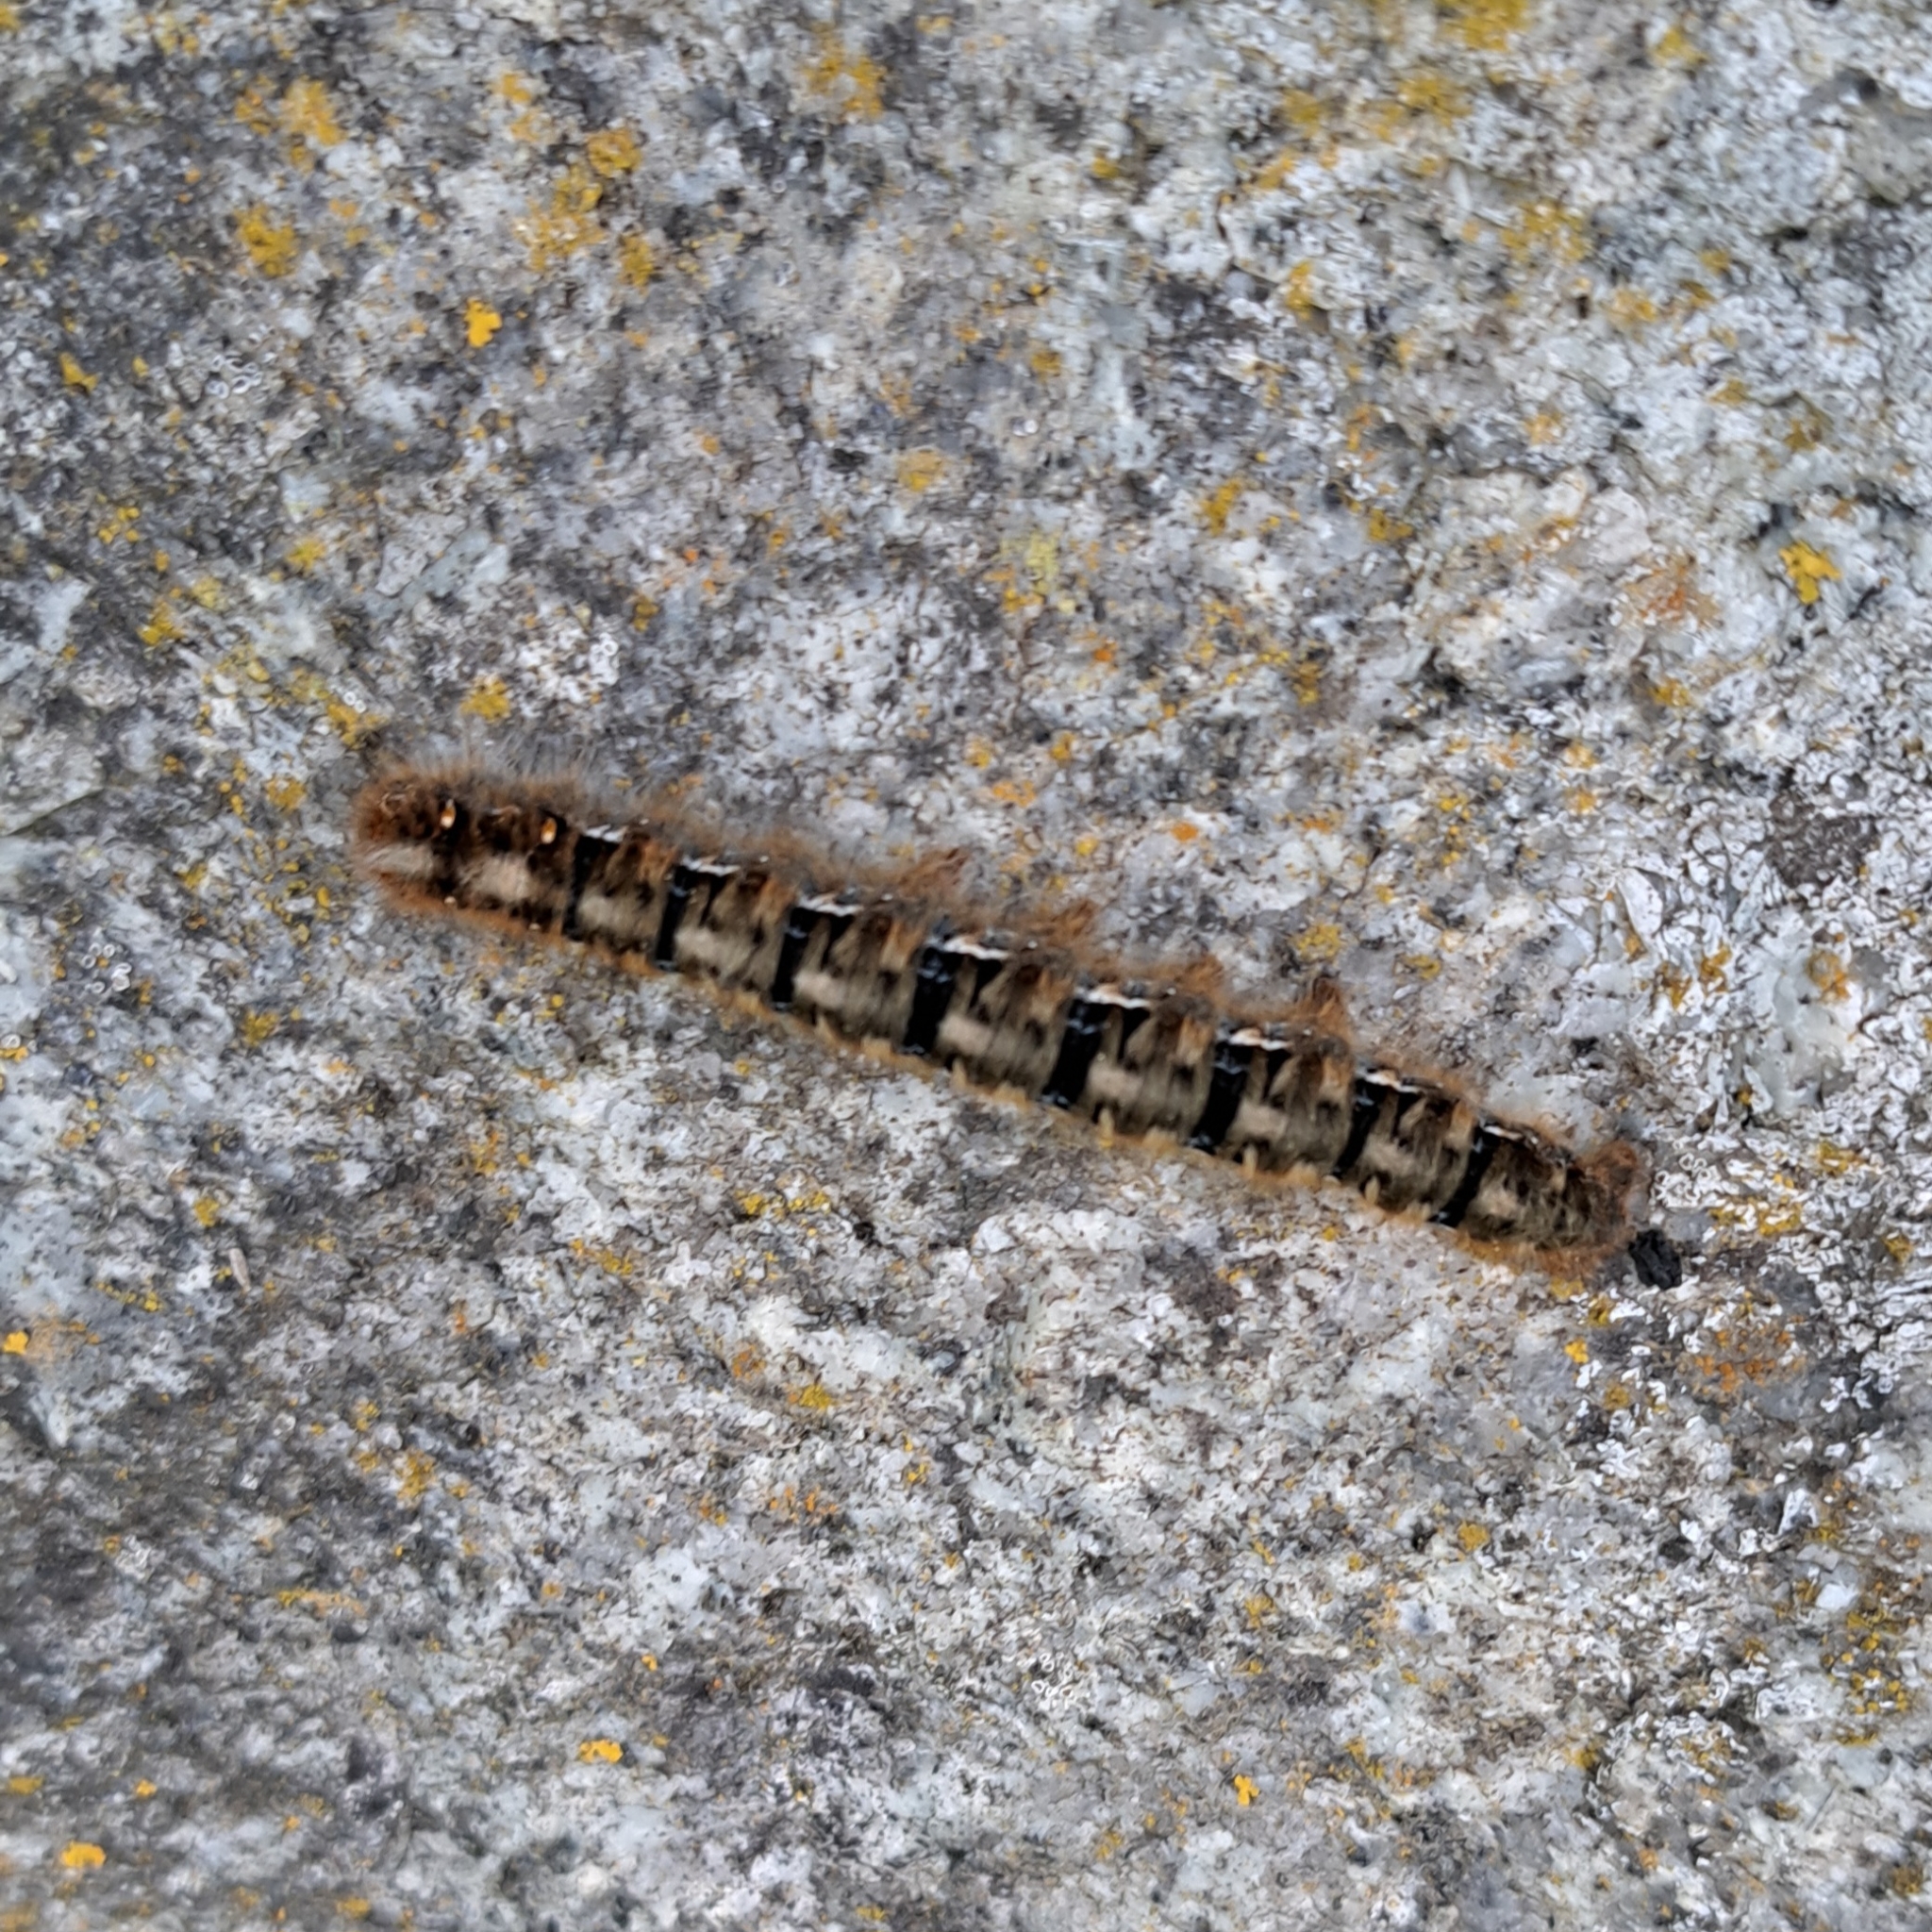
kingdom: Animalia
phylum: Arthropoda
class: Insecta
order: Lepidoptera
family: Lasiocampidae
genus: Lasiocampa
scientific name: Lasiocampa quercus
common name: Oak eggar
